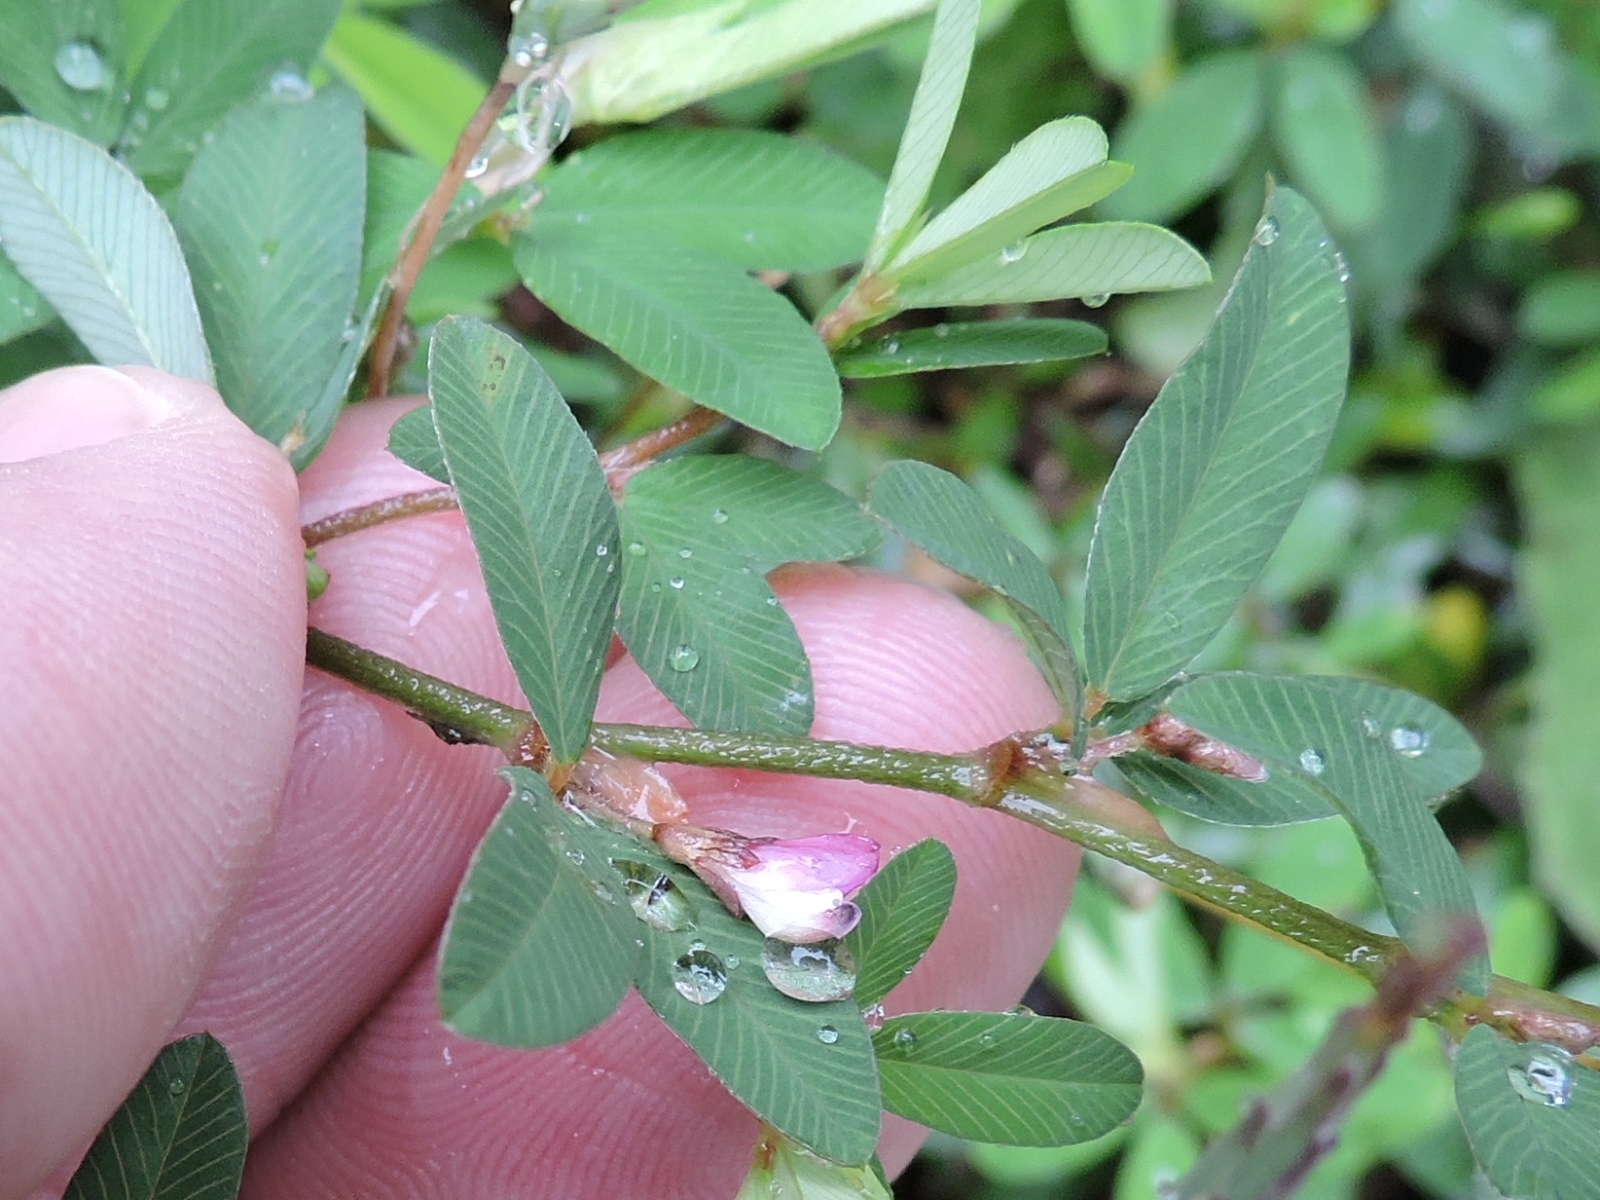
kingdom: Plantae
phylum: Tracheophyta
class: Magnoliopsida
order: Fabales
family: Fabaceae
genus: Kummerowia
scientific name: Kummerowia striata
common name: Japanese clover
